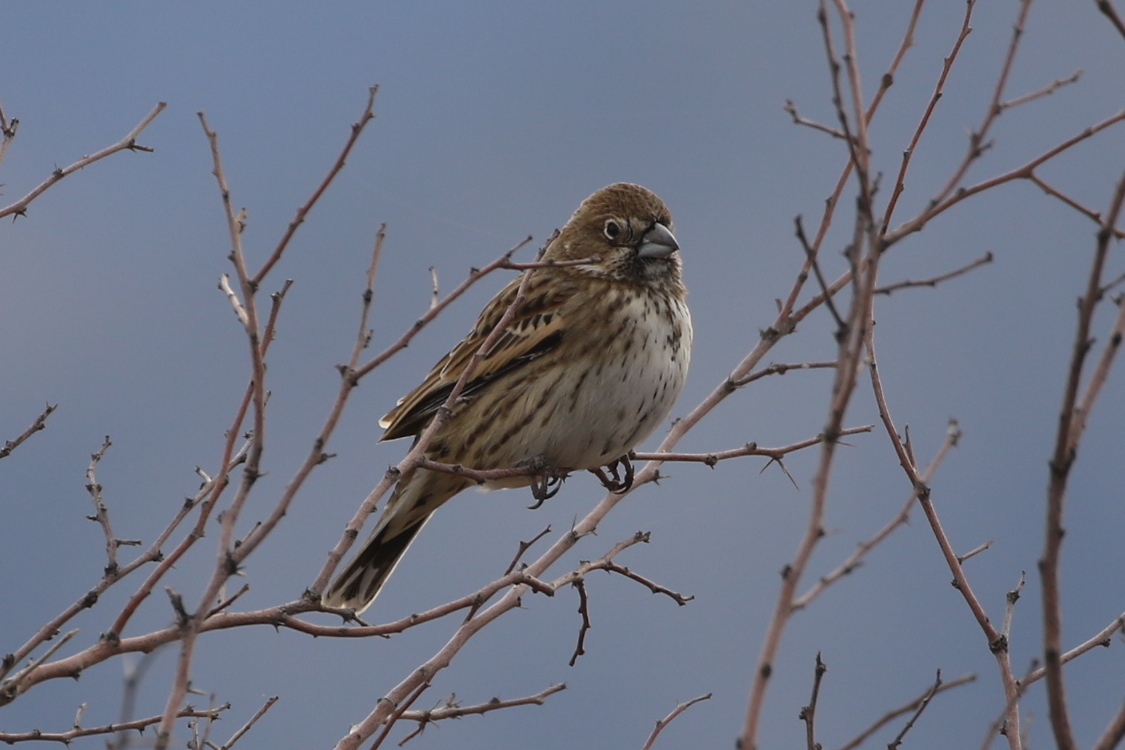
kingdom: Animalia
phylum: Chordata
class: Aves
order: Passeriformes
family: Passerellidae
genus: Calamospiza
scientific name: Calamospiza melanocorys
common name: Lark bunting
